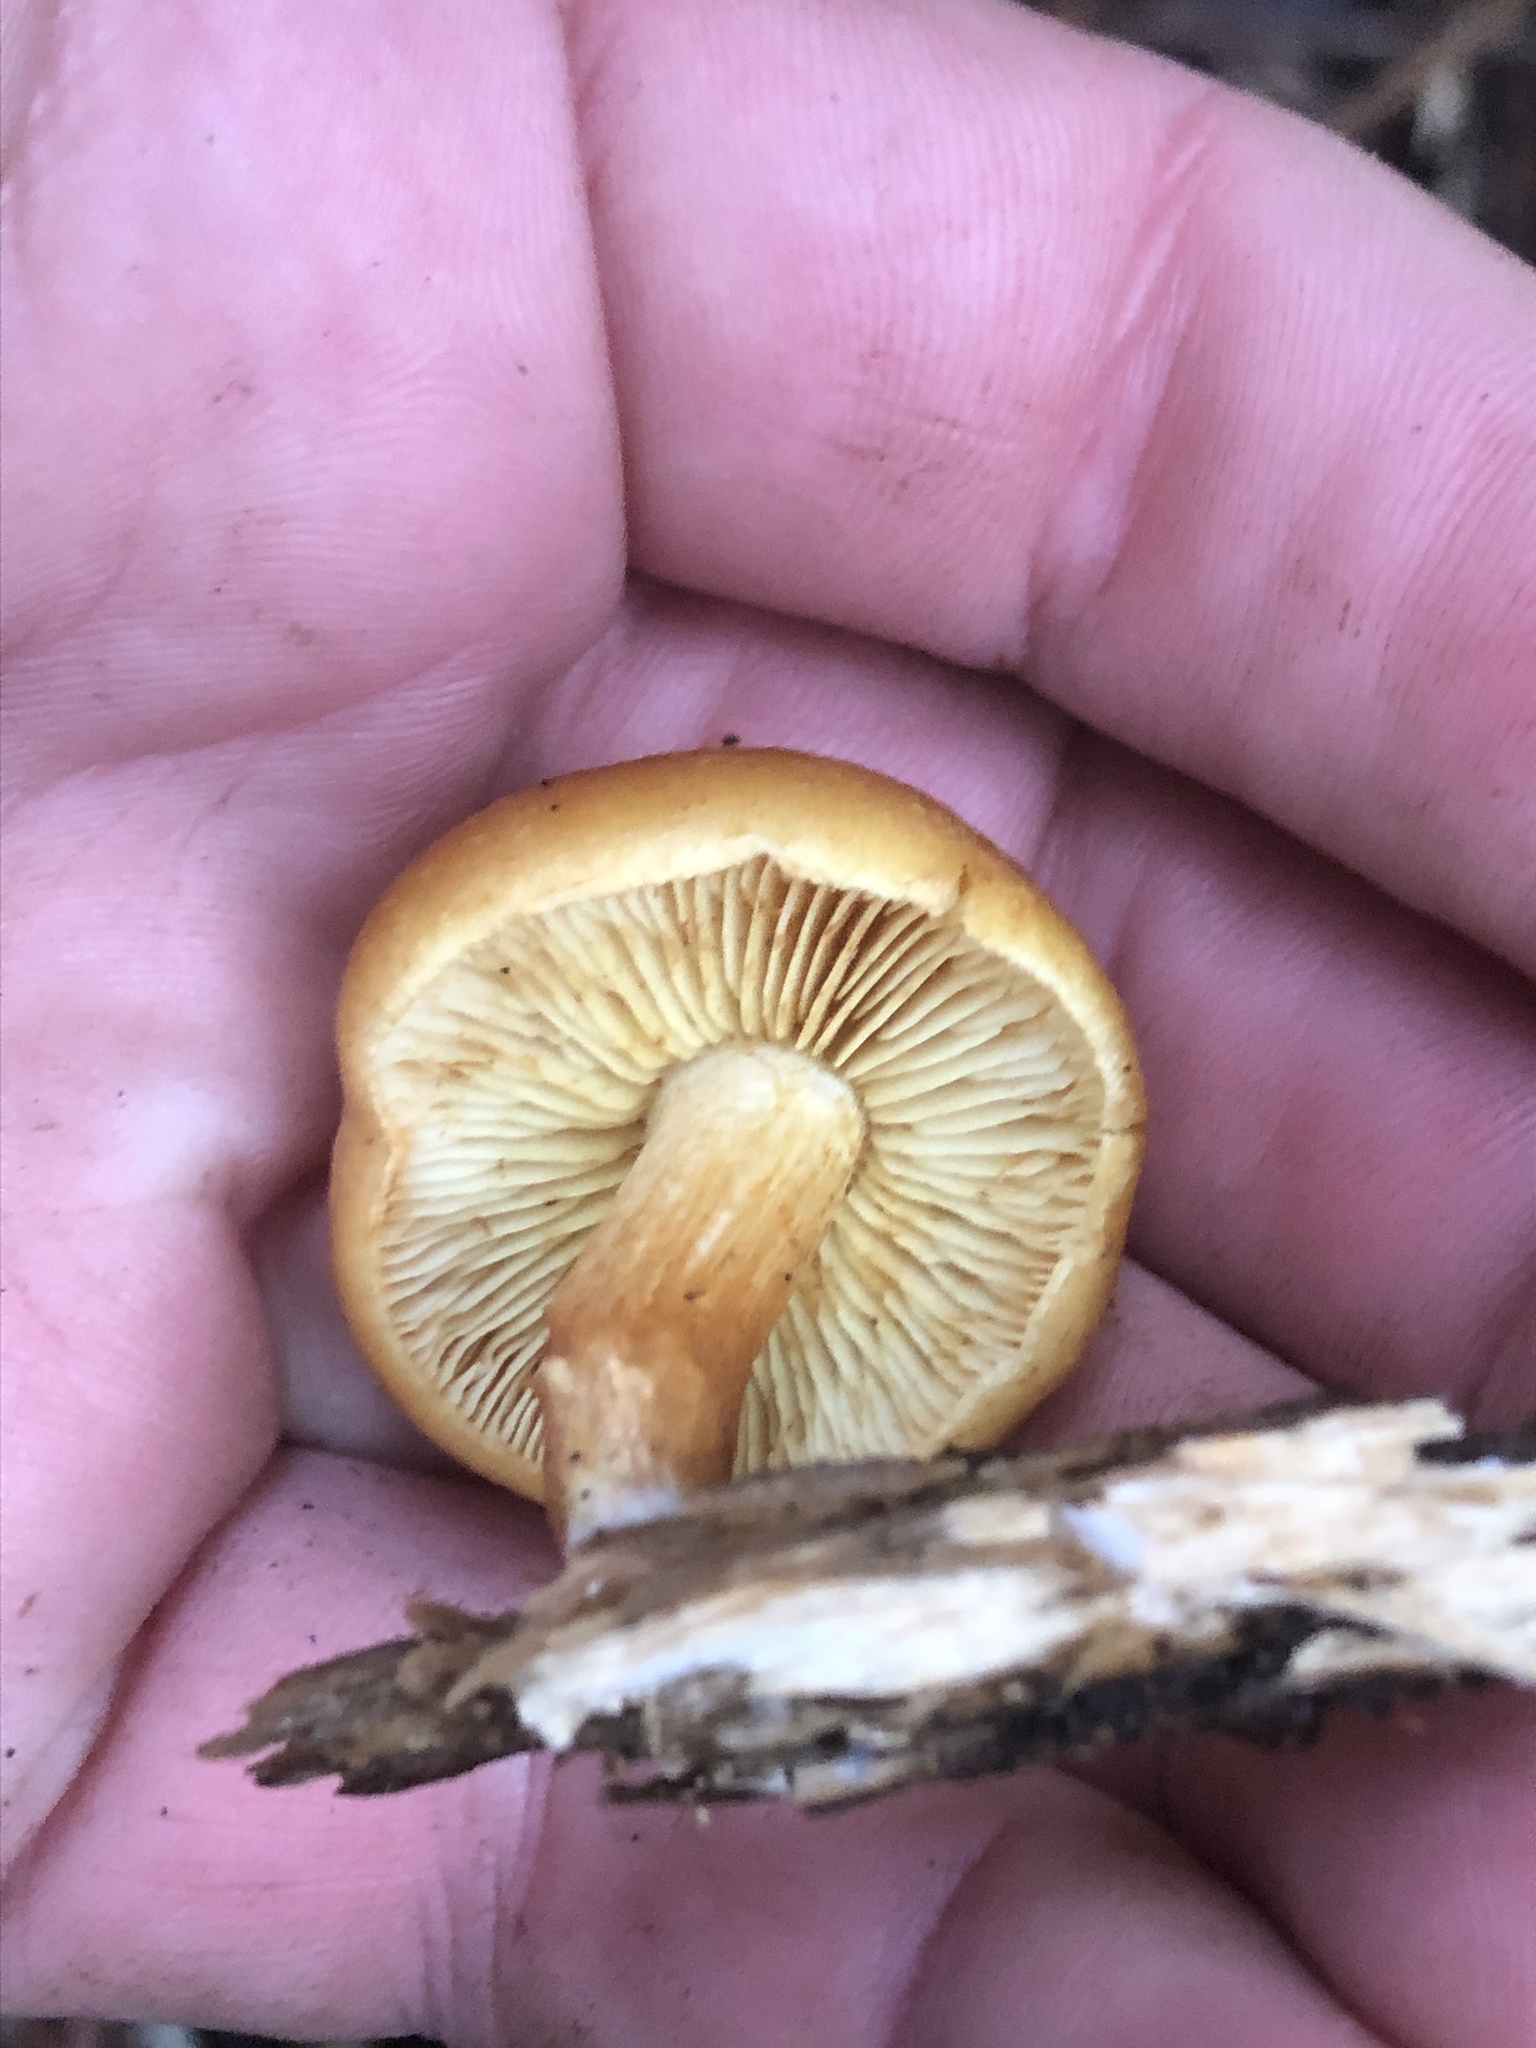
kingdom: Fungi
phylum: Basidiomycota
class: Agaricomycetes
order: Agaricales
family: Hymenogastraceae
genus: Gymnopilus
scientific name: Gymnopilus aurantiophyllus
